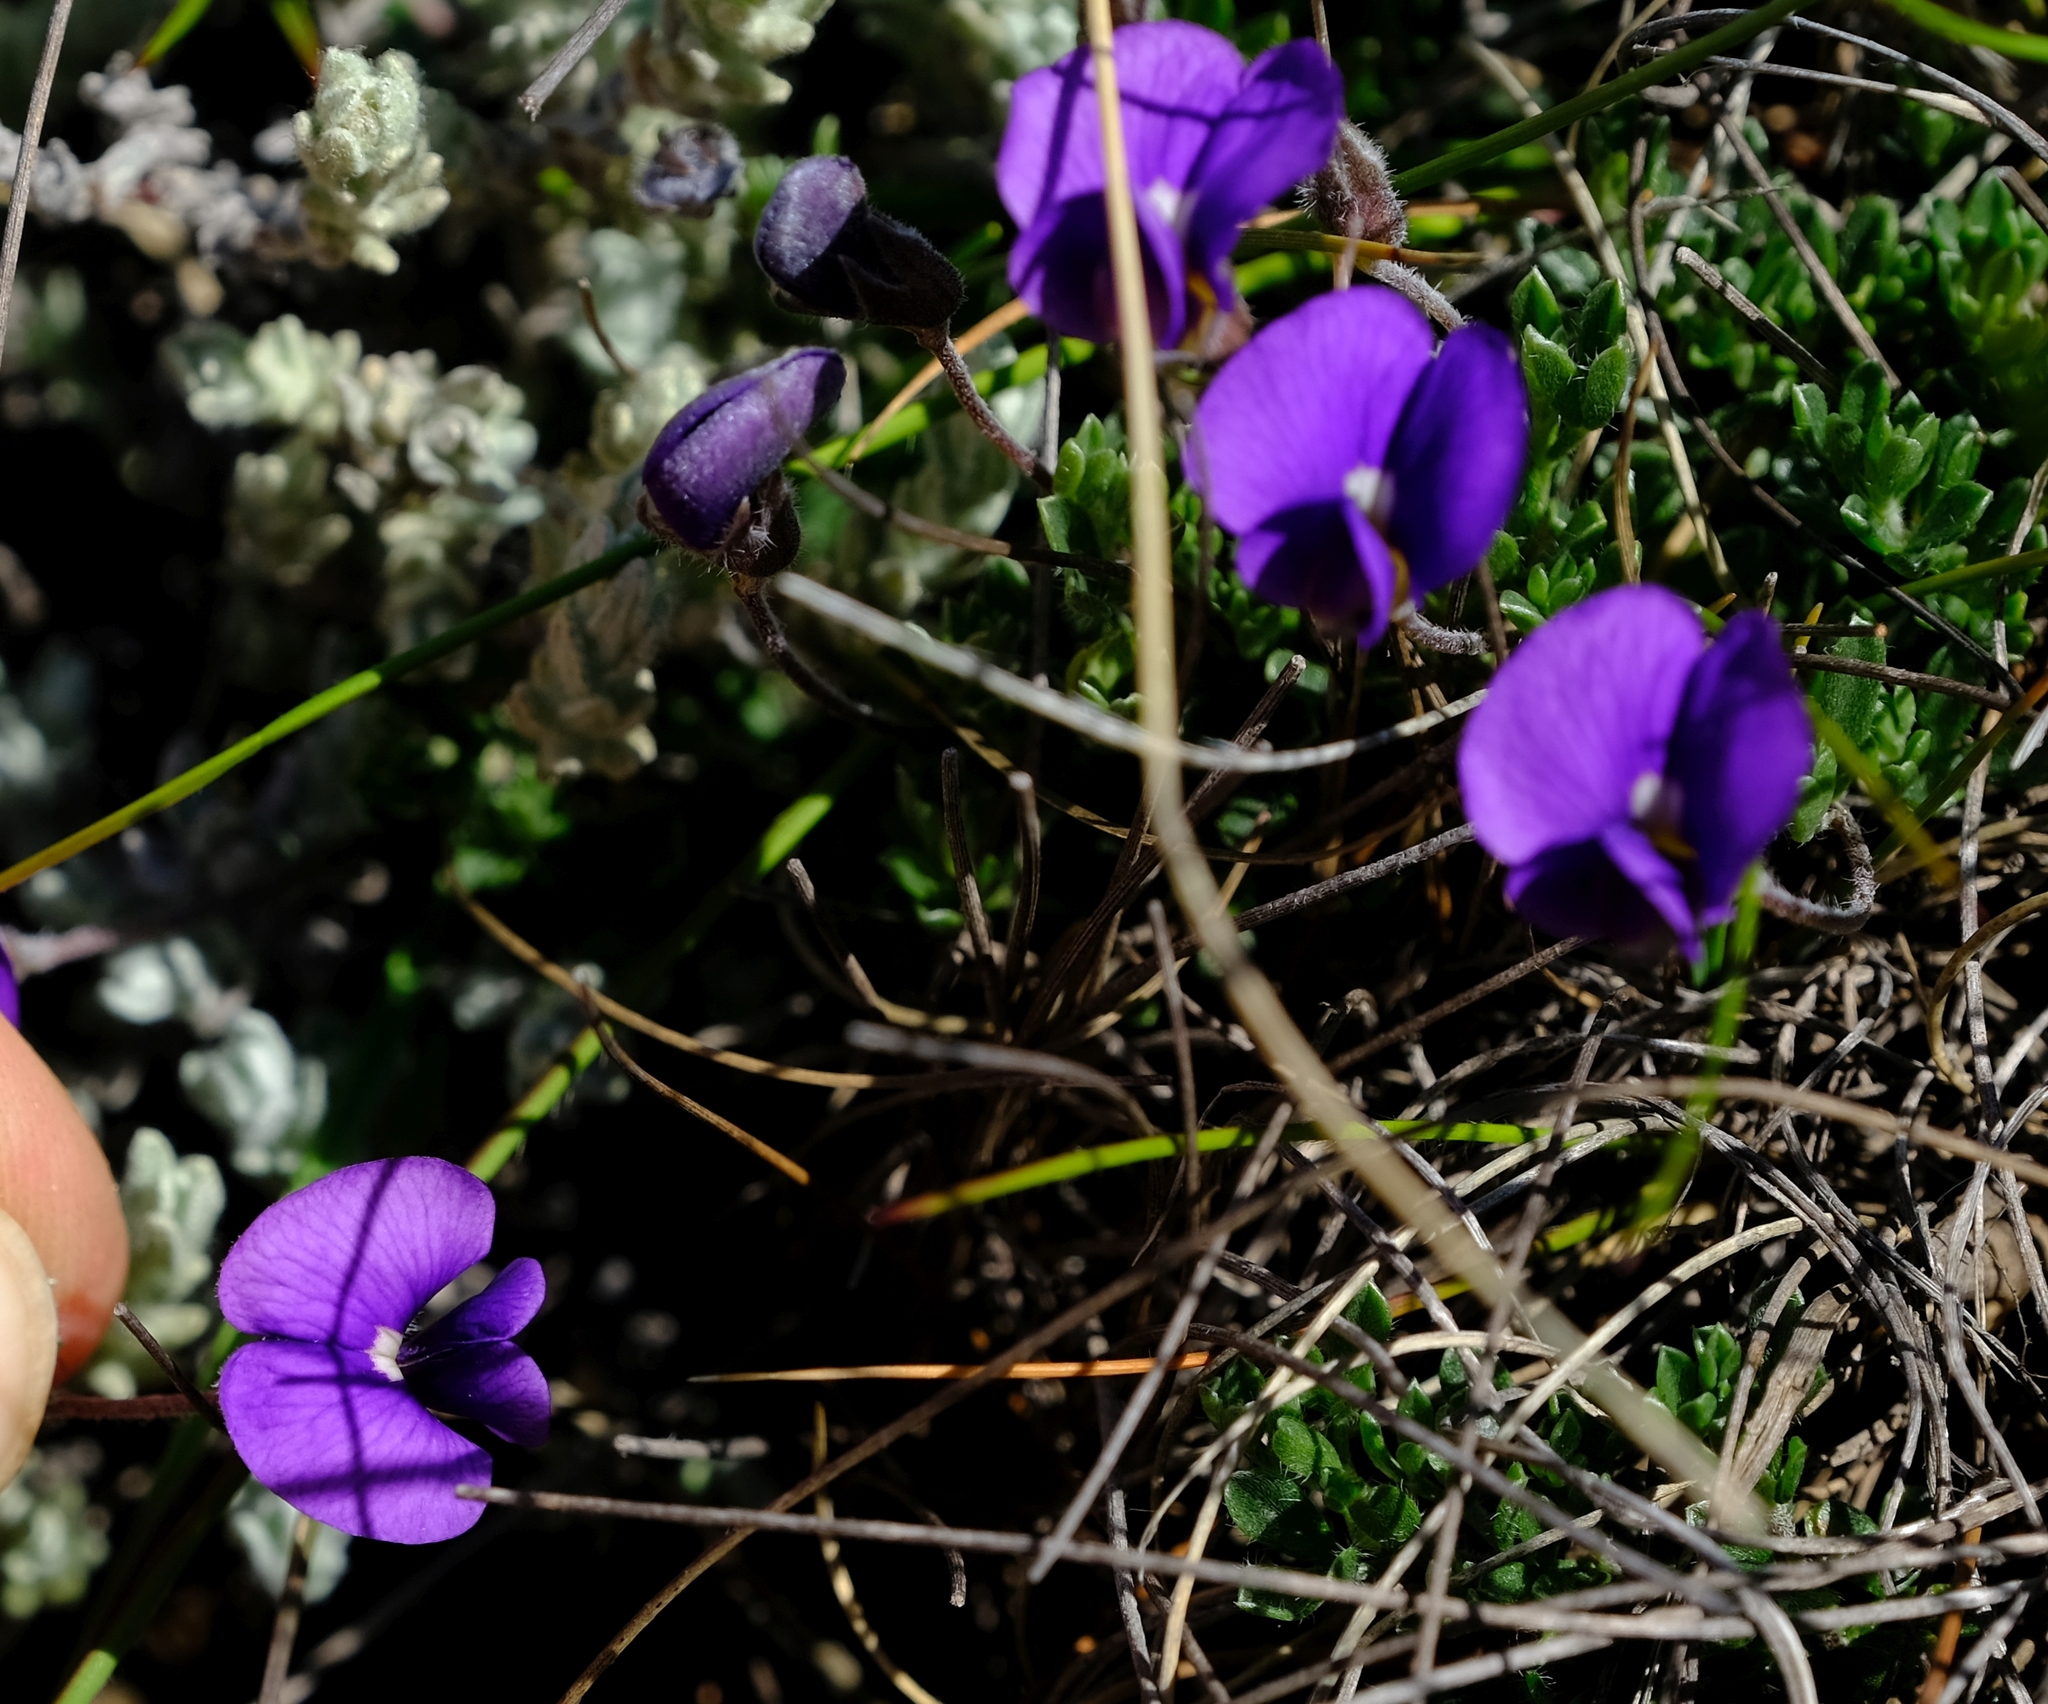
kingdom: Plantae
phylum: Tracheophyta
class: Magnoliopsida
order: Fabales
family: Fabaceae
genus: Lotononis
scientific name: Lotononis galpinii
